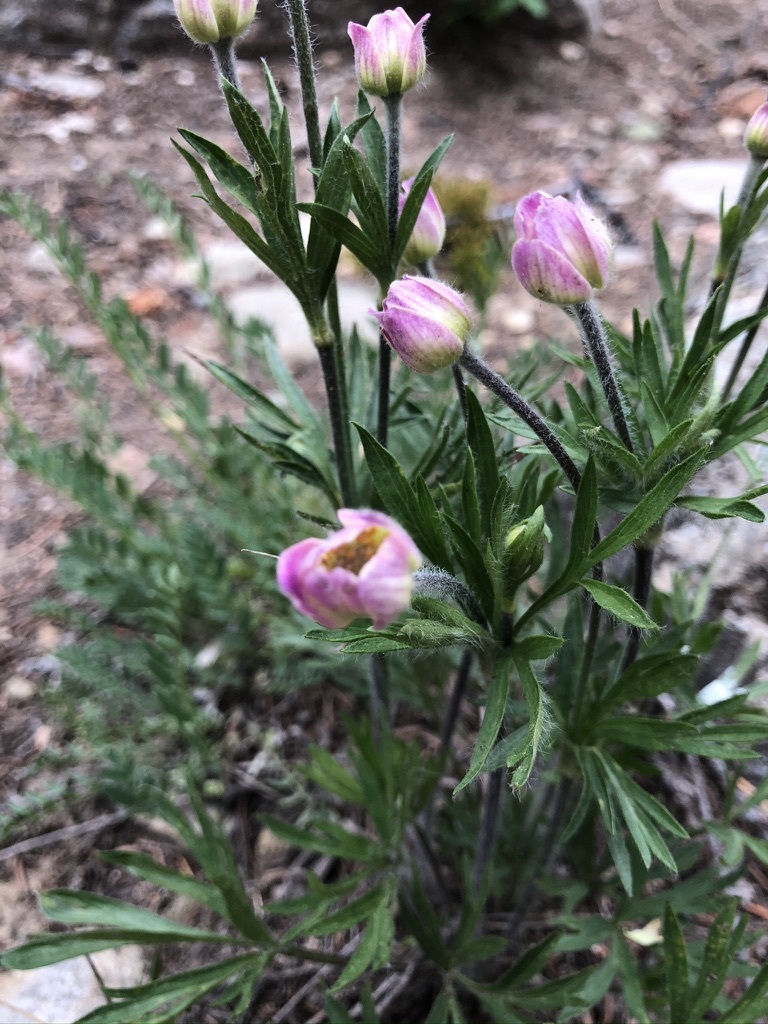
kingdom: Plantae
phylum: Tracheophyta
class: Magnoliopsida
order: Ranunculales
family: Ranunculaceae
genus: Anemone
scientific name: Anemone multifida
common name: Bird's-foot anemone
